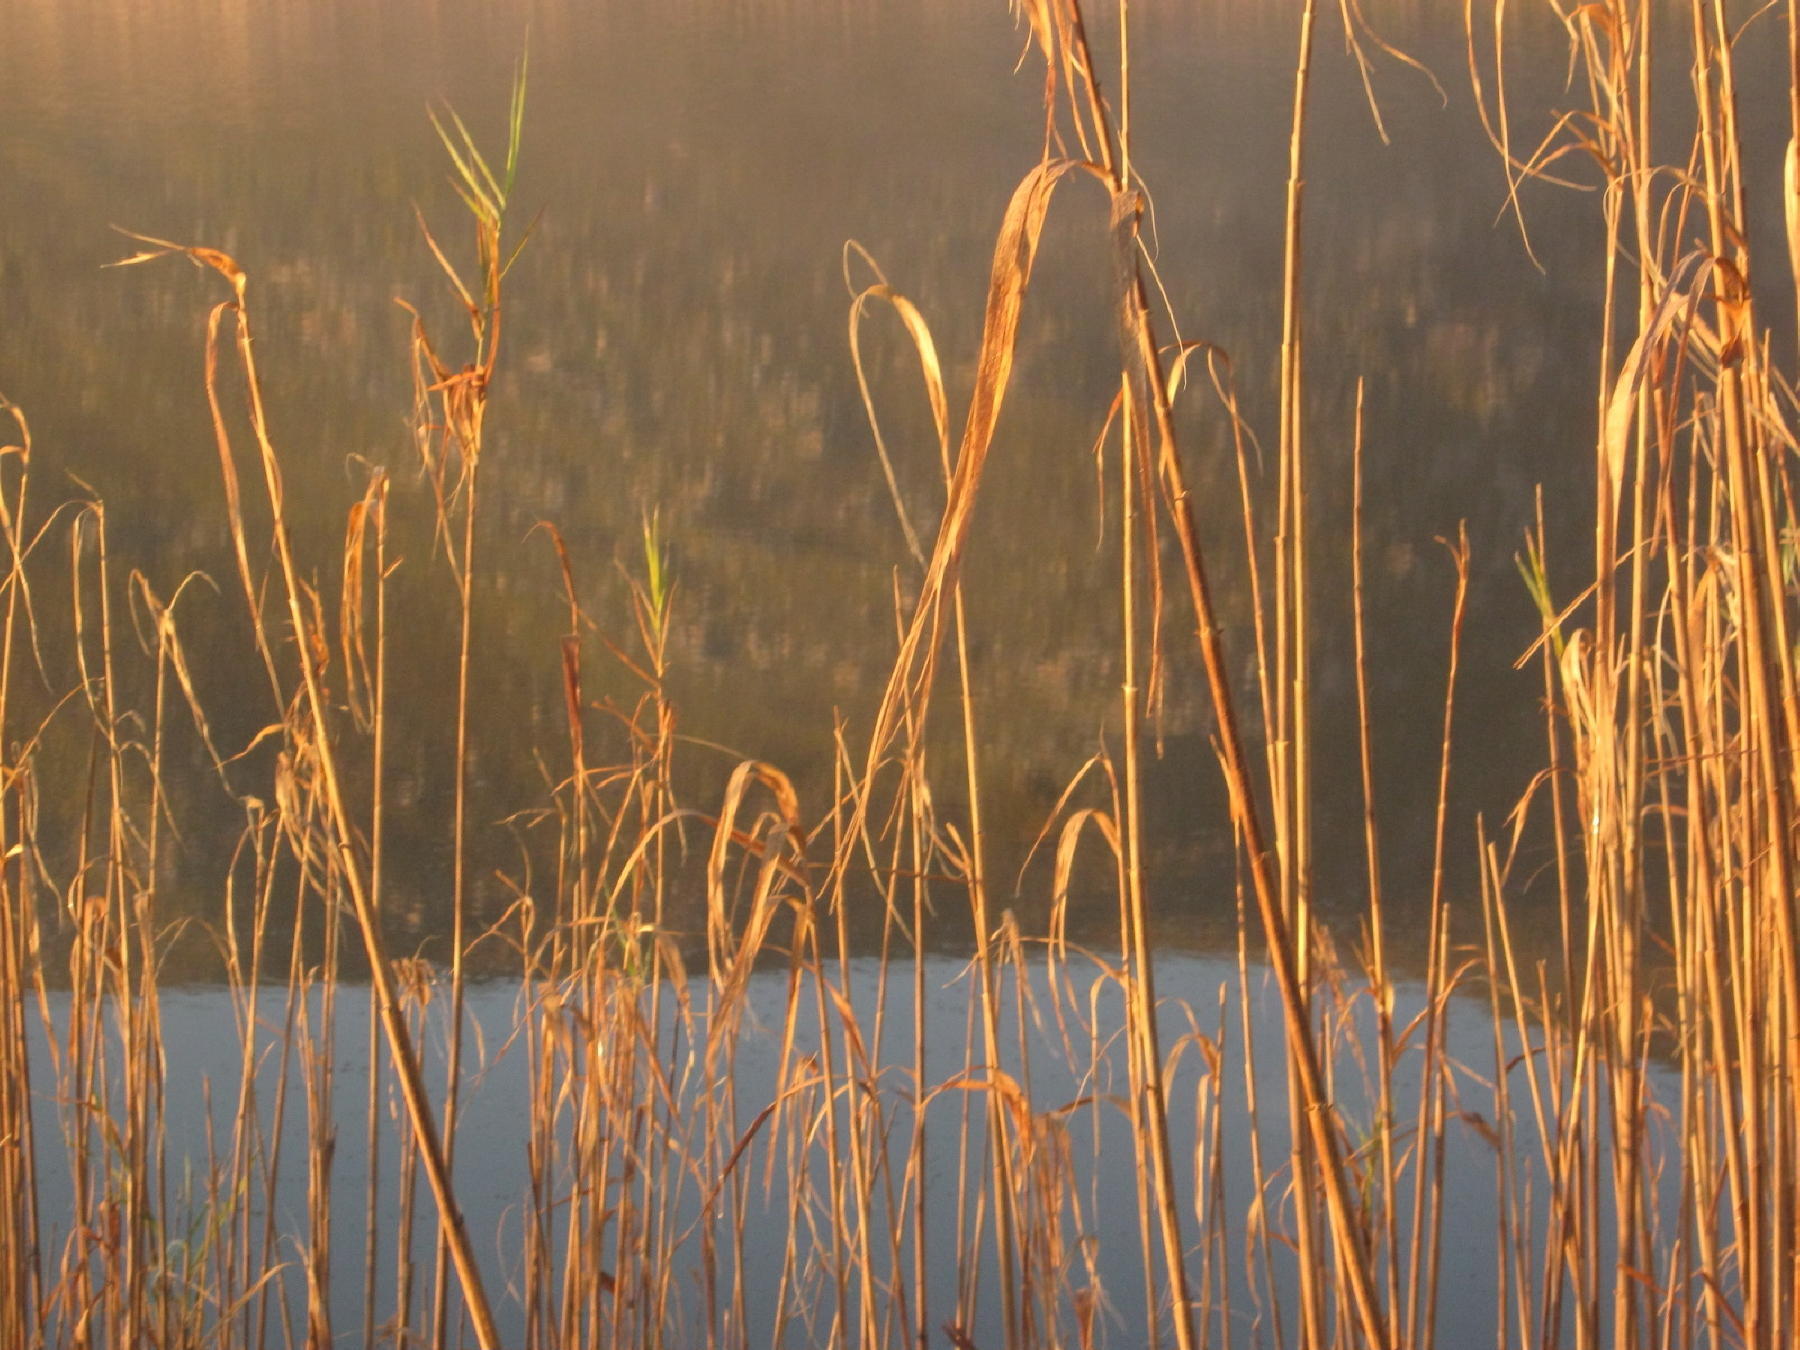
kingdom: Plantae
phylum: Tracheophyta
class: Liliopsida
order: Poales
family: Poaceae
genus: Phragmites
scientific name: Phragmites australis
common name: Common reed
